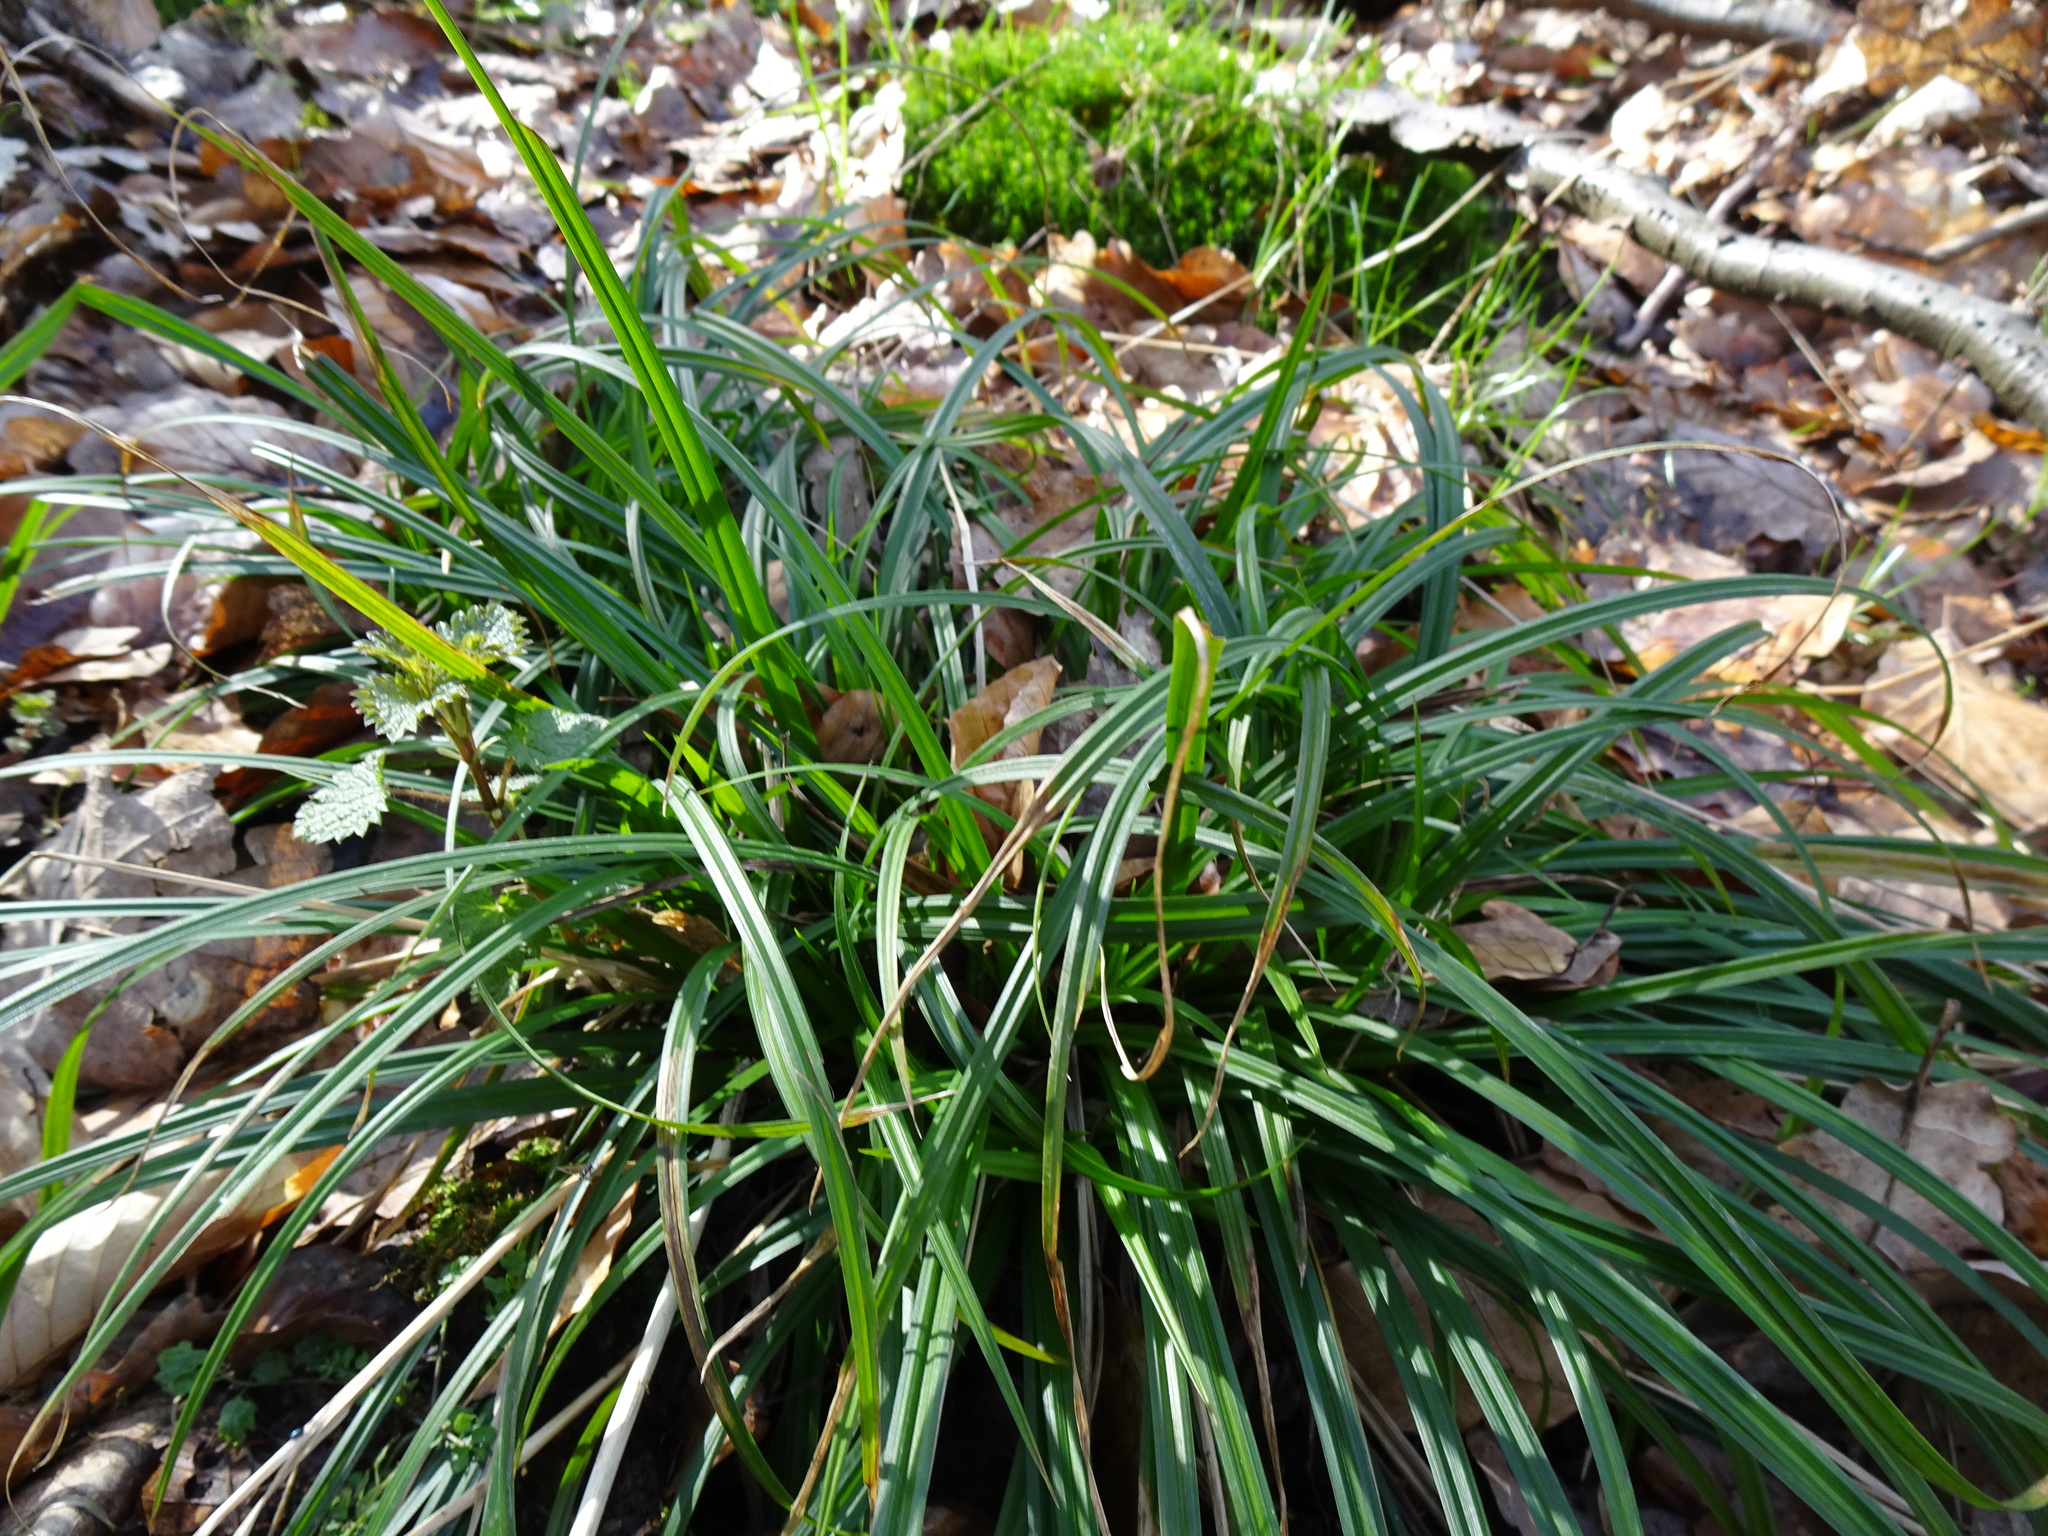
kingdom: Plantae
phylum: Tracheophyta
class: Liliopsida
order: Poales
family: Cyperaceae
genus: Carex
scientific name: Carex sylvatica
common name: Wood-sedge
